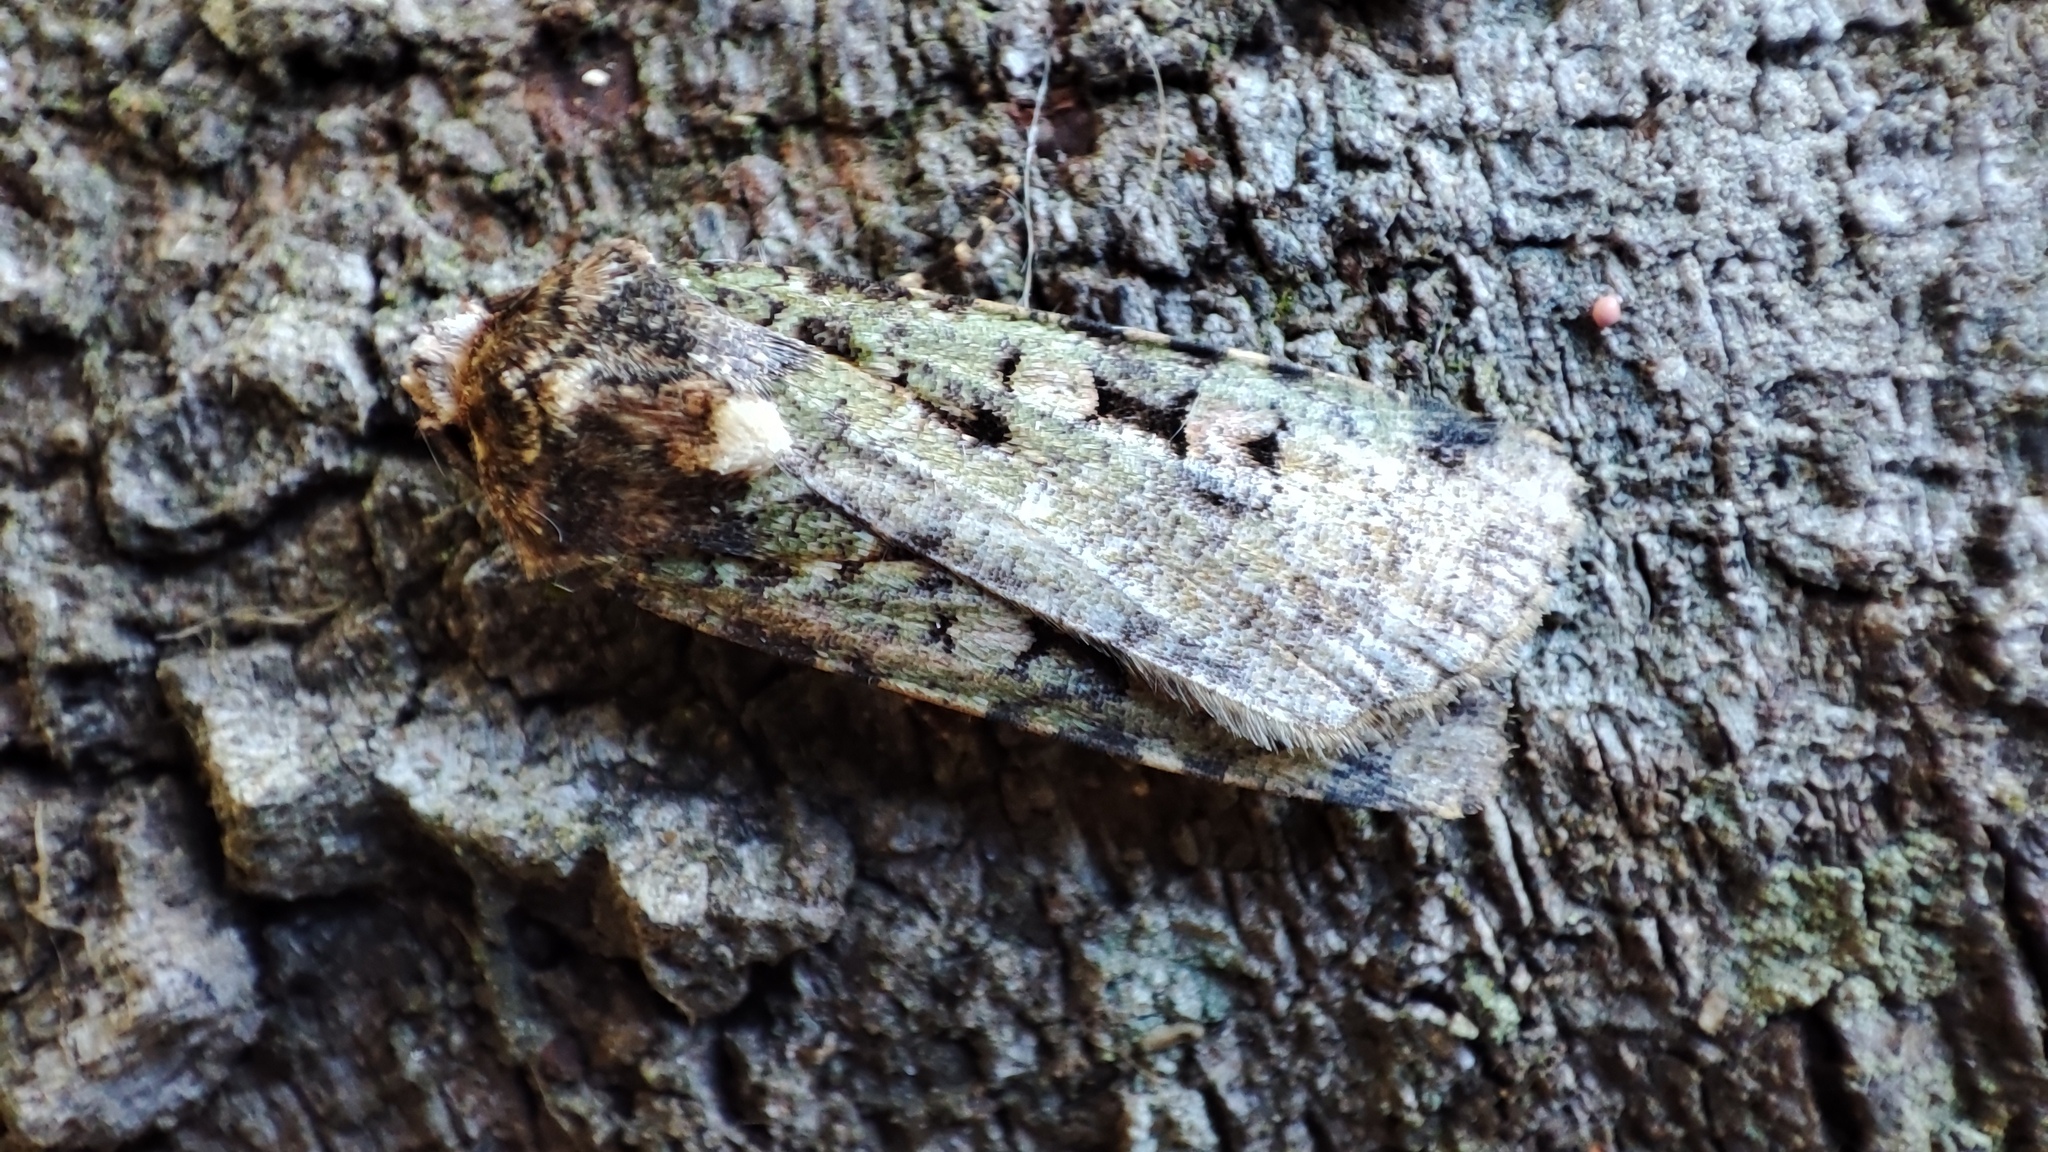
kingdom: Animalia
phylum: Arthropoda
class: Insecta
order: Lepidoptera
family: Noctuidae
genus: Mentaxya
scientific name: Mentaxya ignicollis
